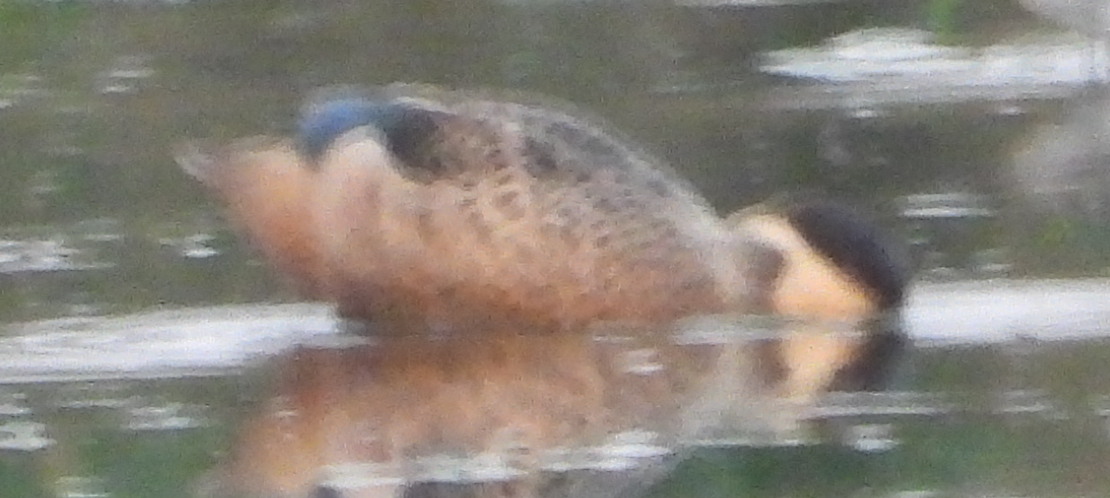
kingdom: Animalia
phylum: Chordata
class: Aves
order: Anseriformes
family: Anatidae
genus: Spatula
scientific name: Spatula hottentota
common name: Blue-billed teal
